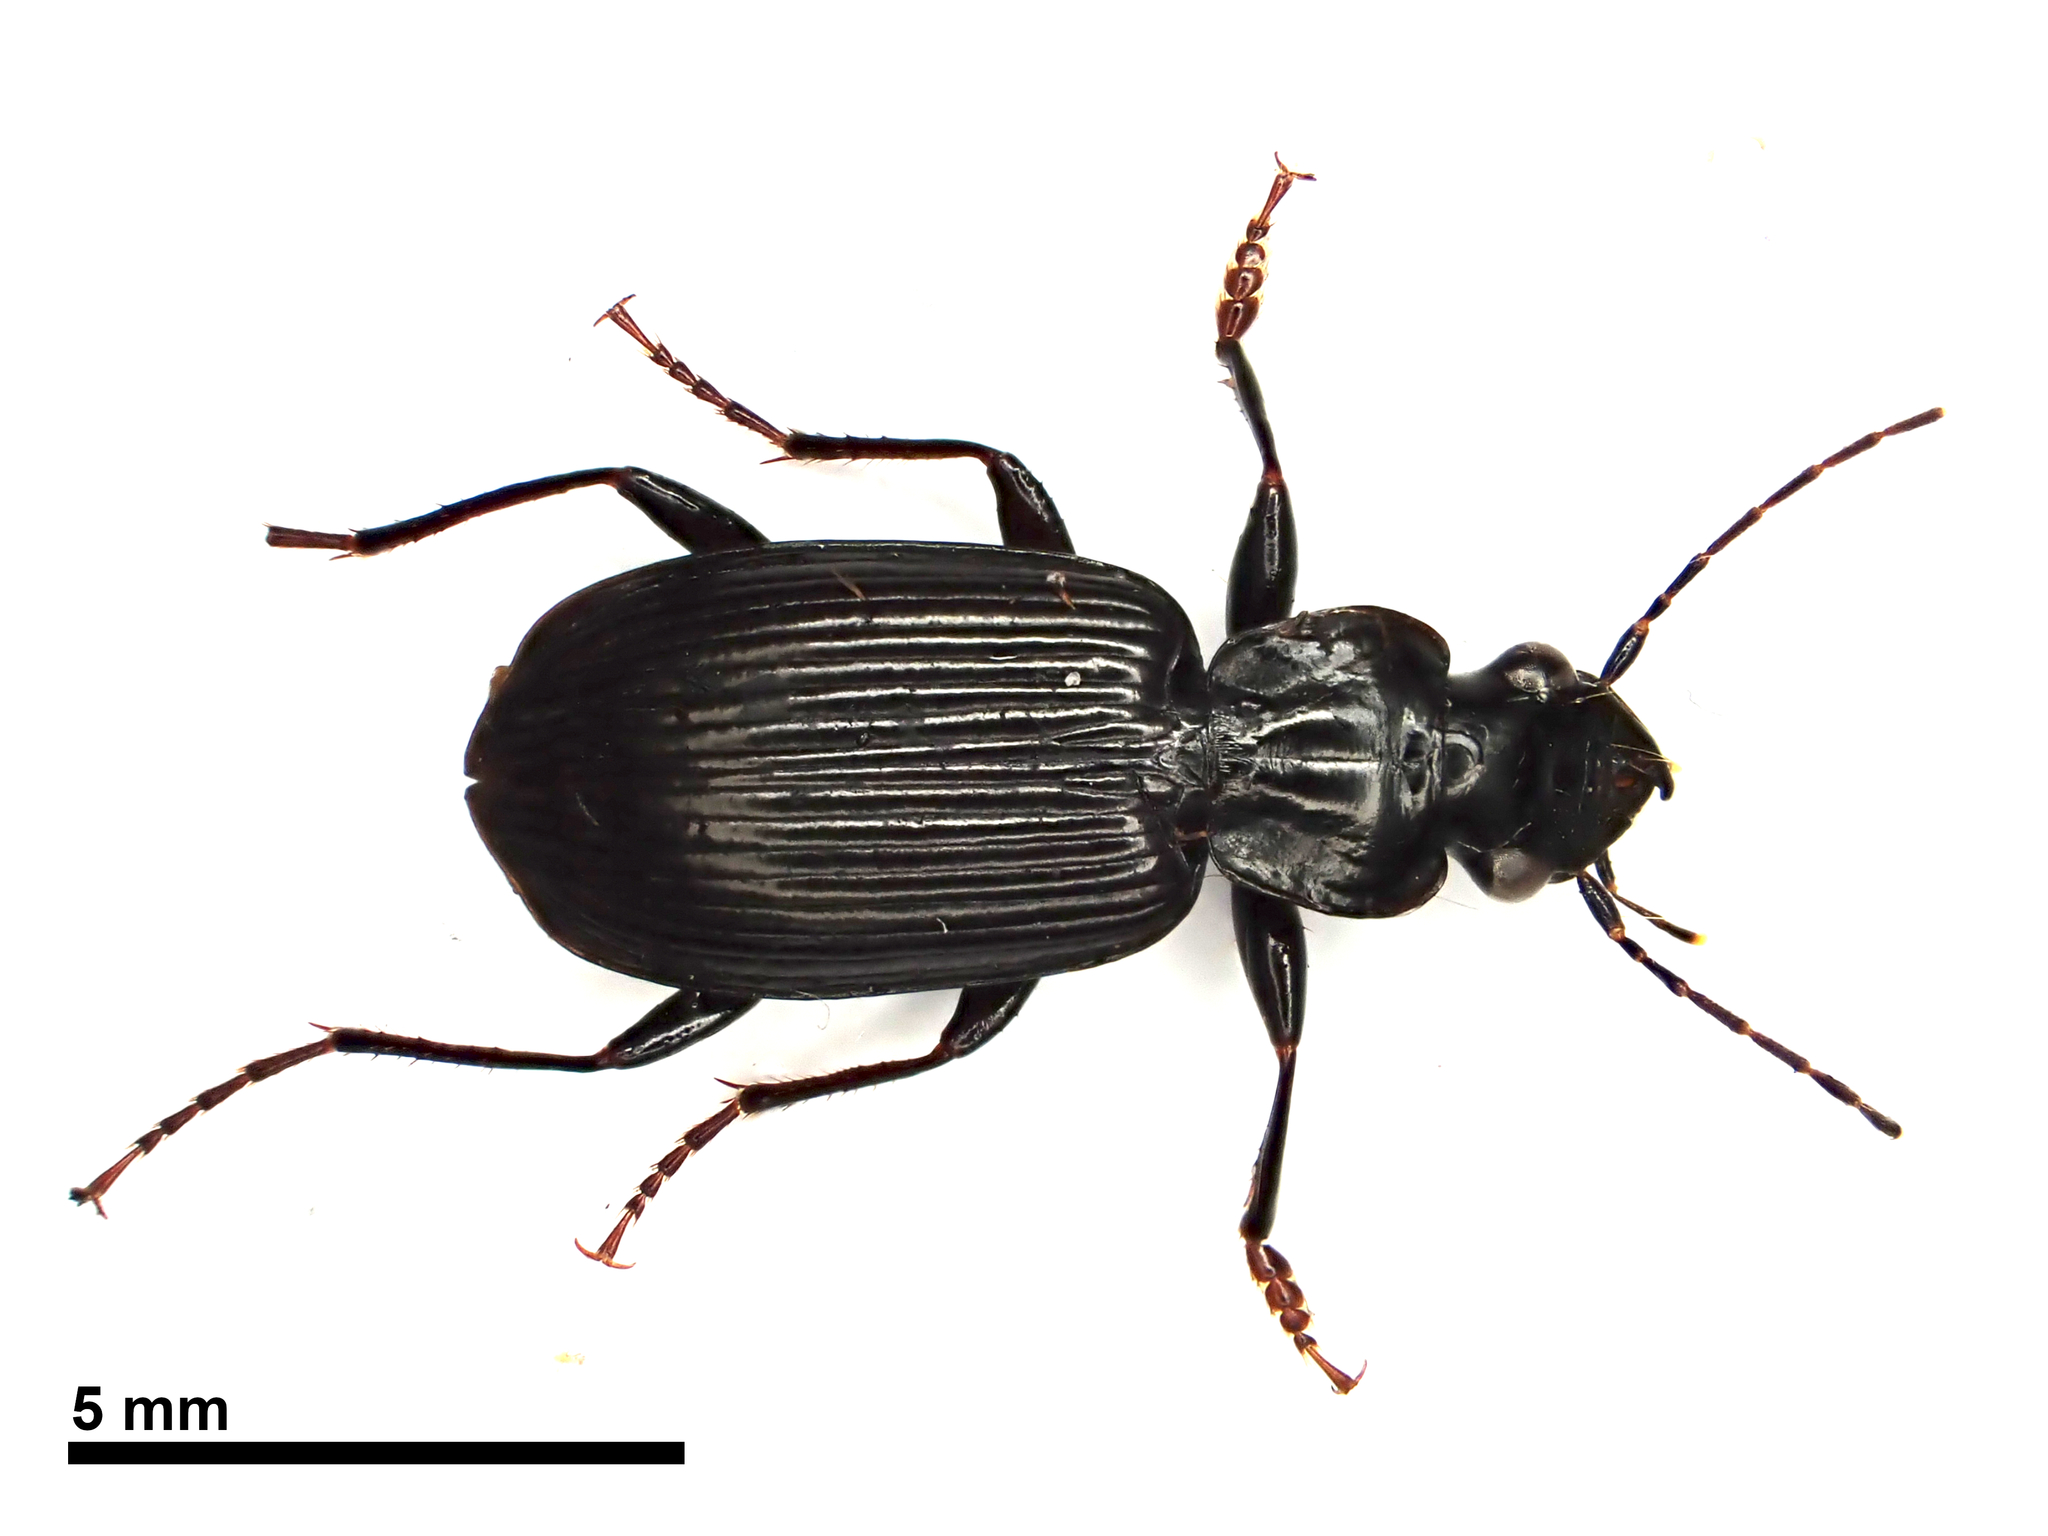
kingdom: Animalia
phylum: Arthropoda
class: Insecta
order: Coleoptera
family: Carabidae
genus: Dicrochile
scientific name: Dicrochile
